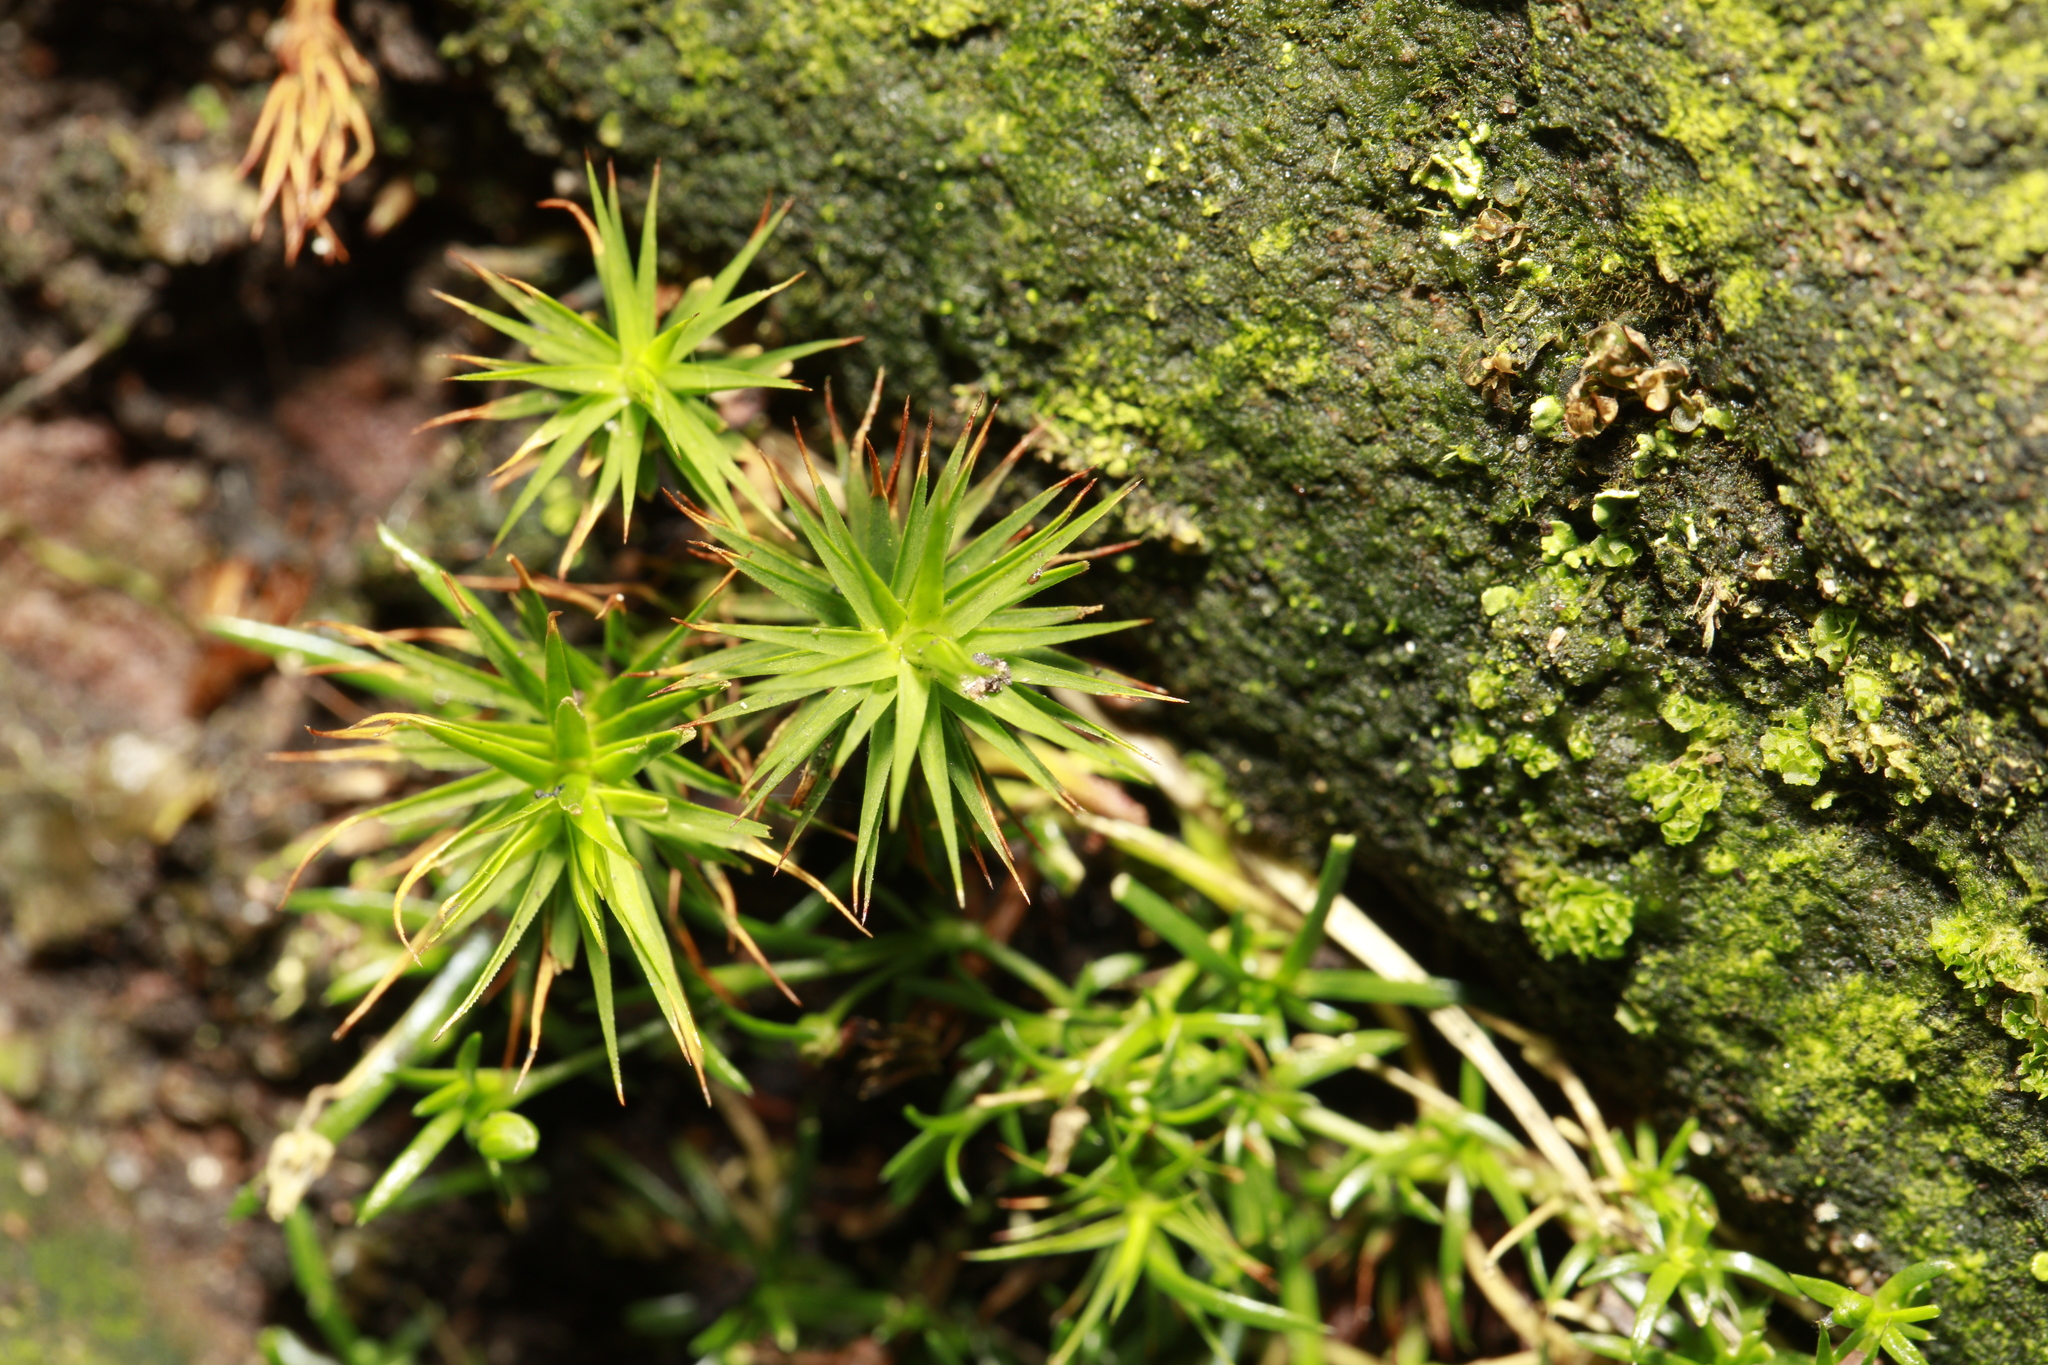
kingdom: Plantae
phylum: Bryophyta
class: Polytrichopsida
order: Polytrichales
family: Polytrichaceae
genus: Polytrichum
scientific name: Polytrichum formosum
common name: Bank haircap moss
